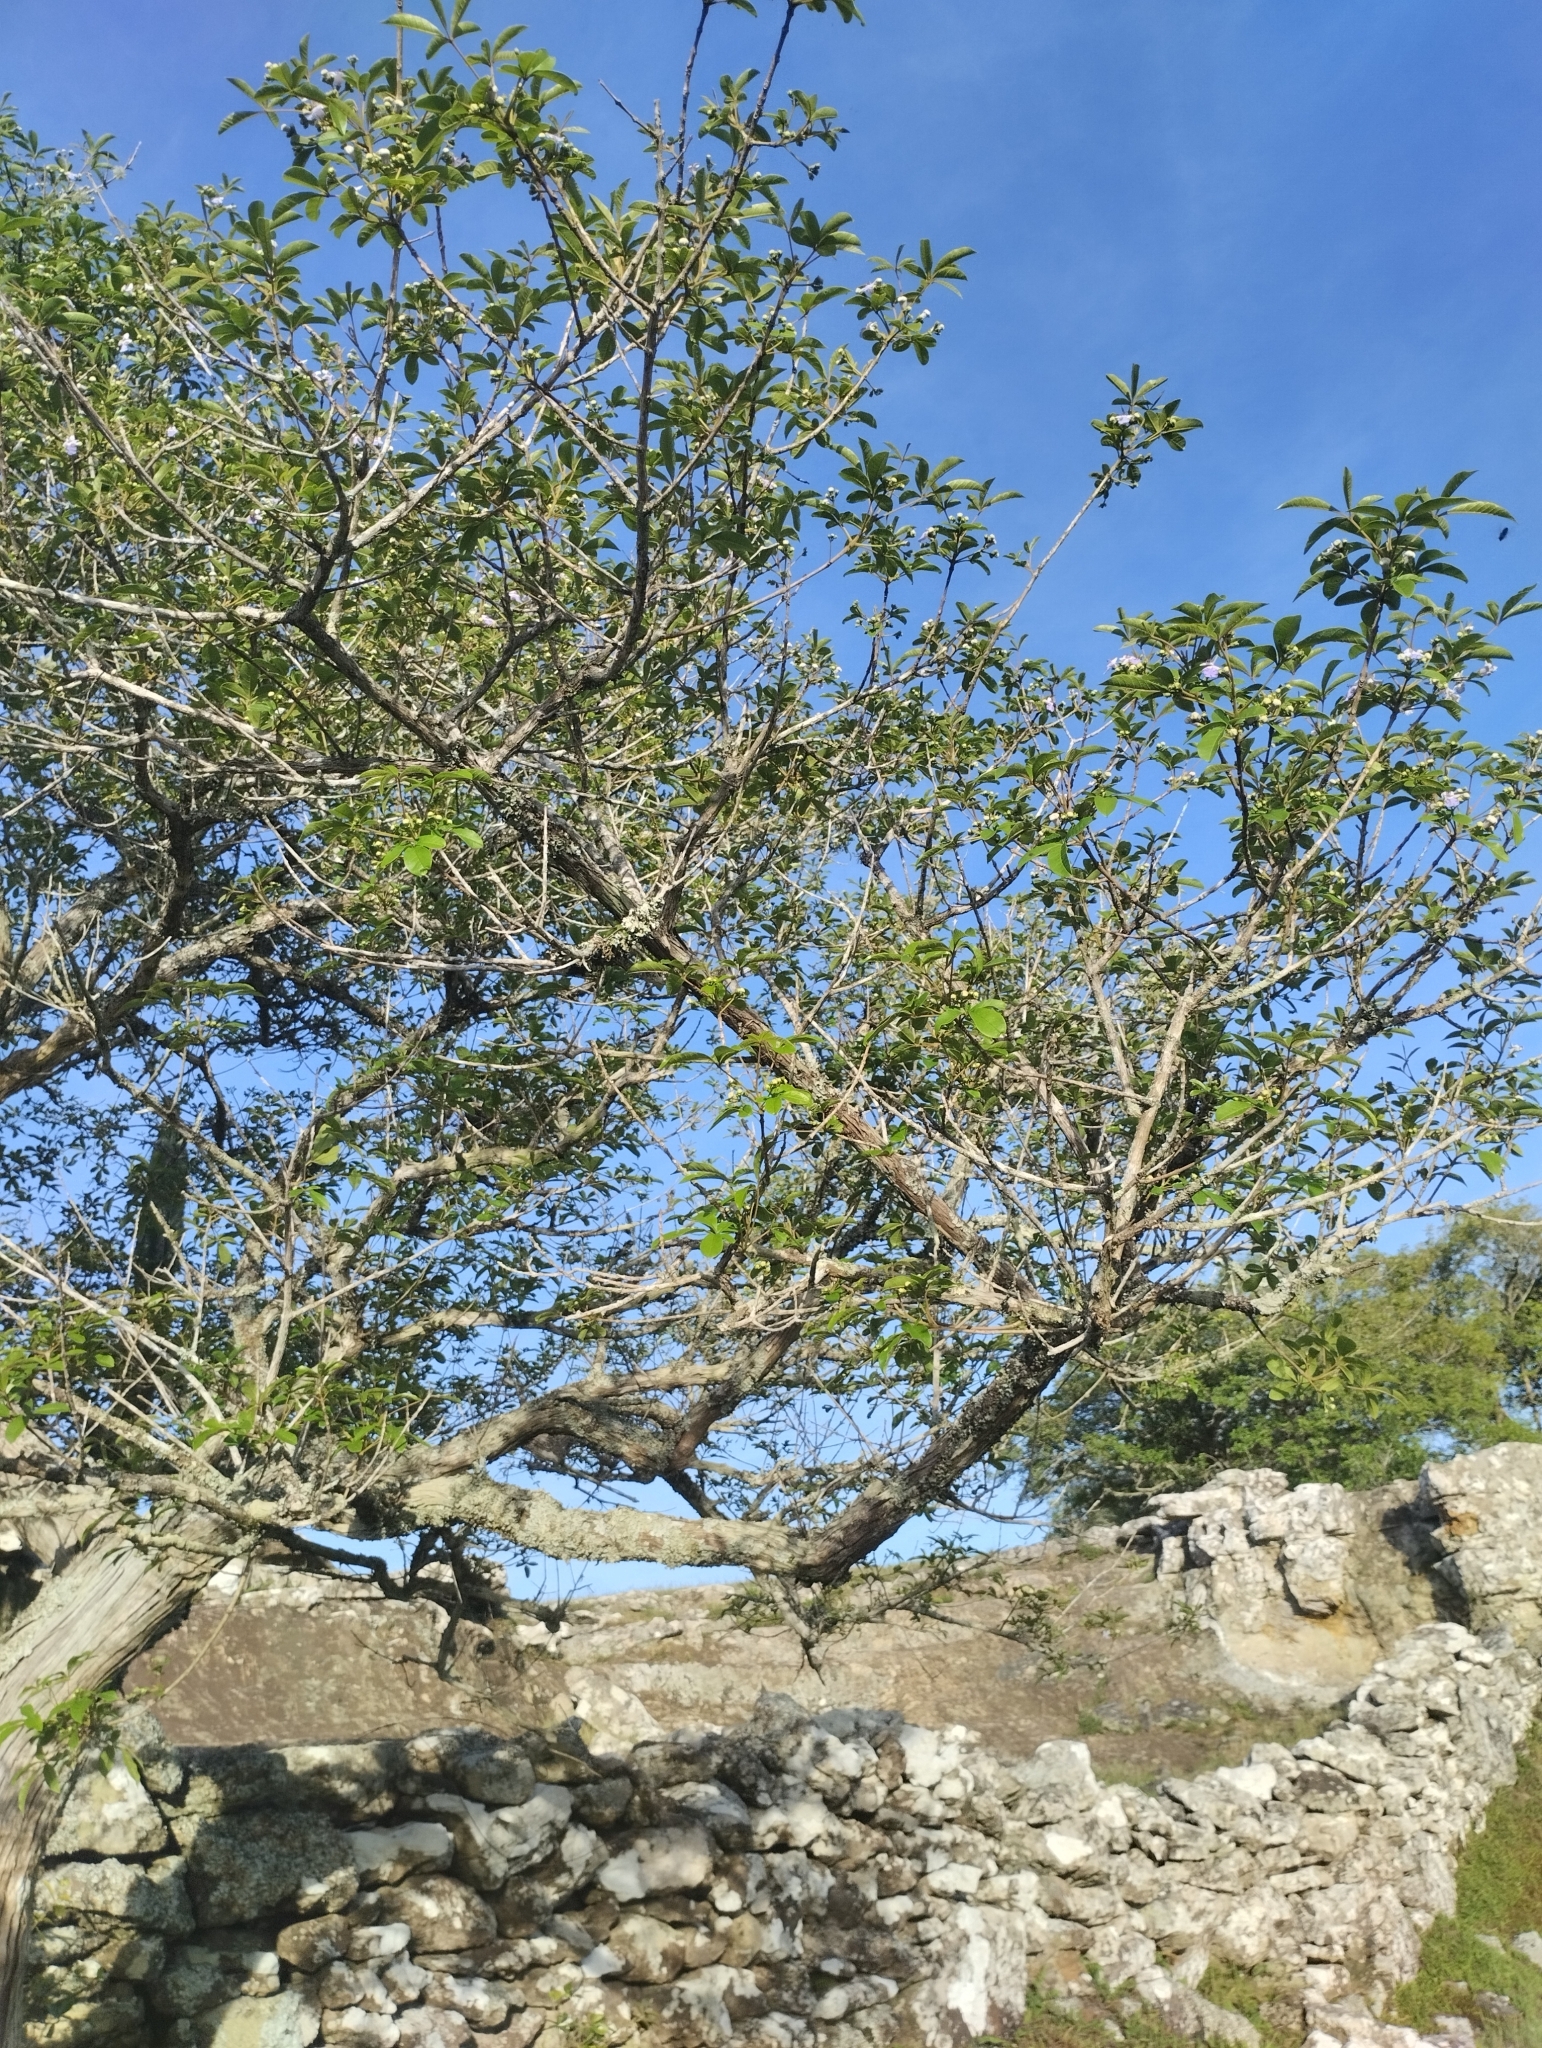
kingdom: Plantae
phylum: Tracheophyta
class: Magnoliopsida
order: Lamiales
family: Lamiaceae
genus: Vitex
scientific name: Vitex megapotamica
